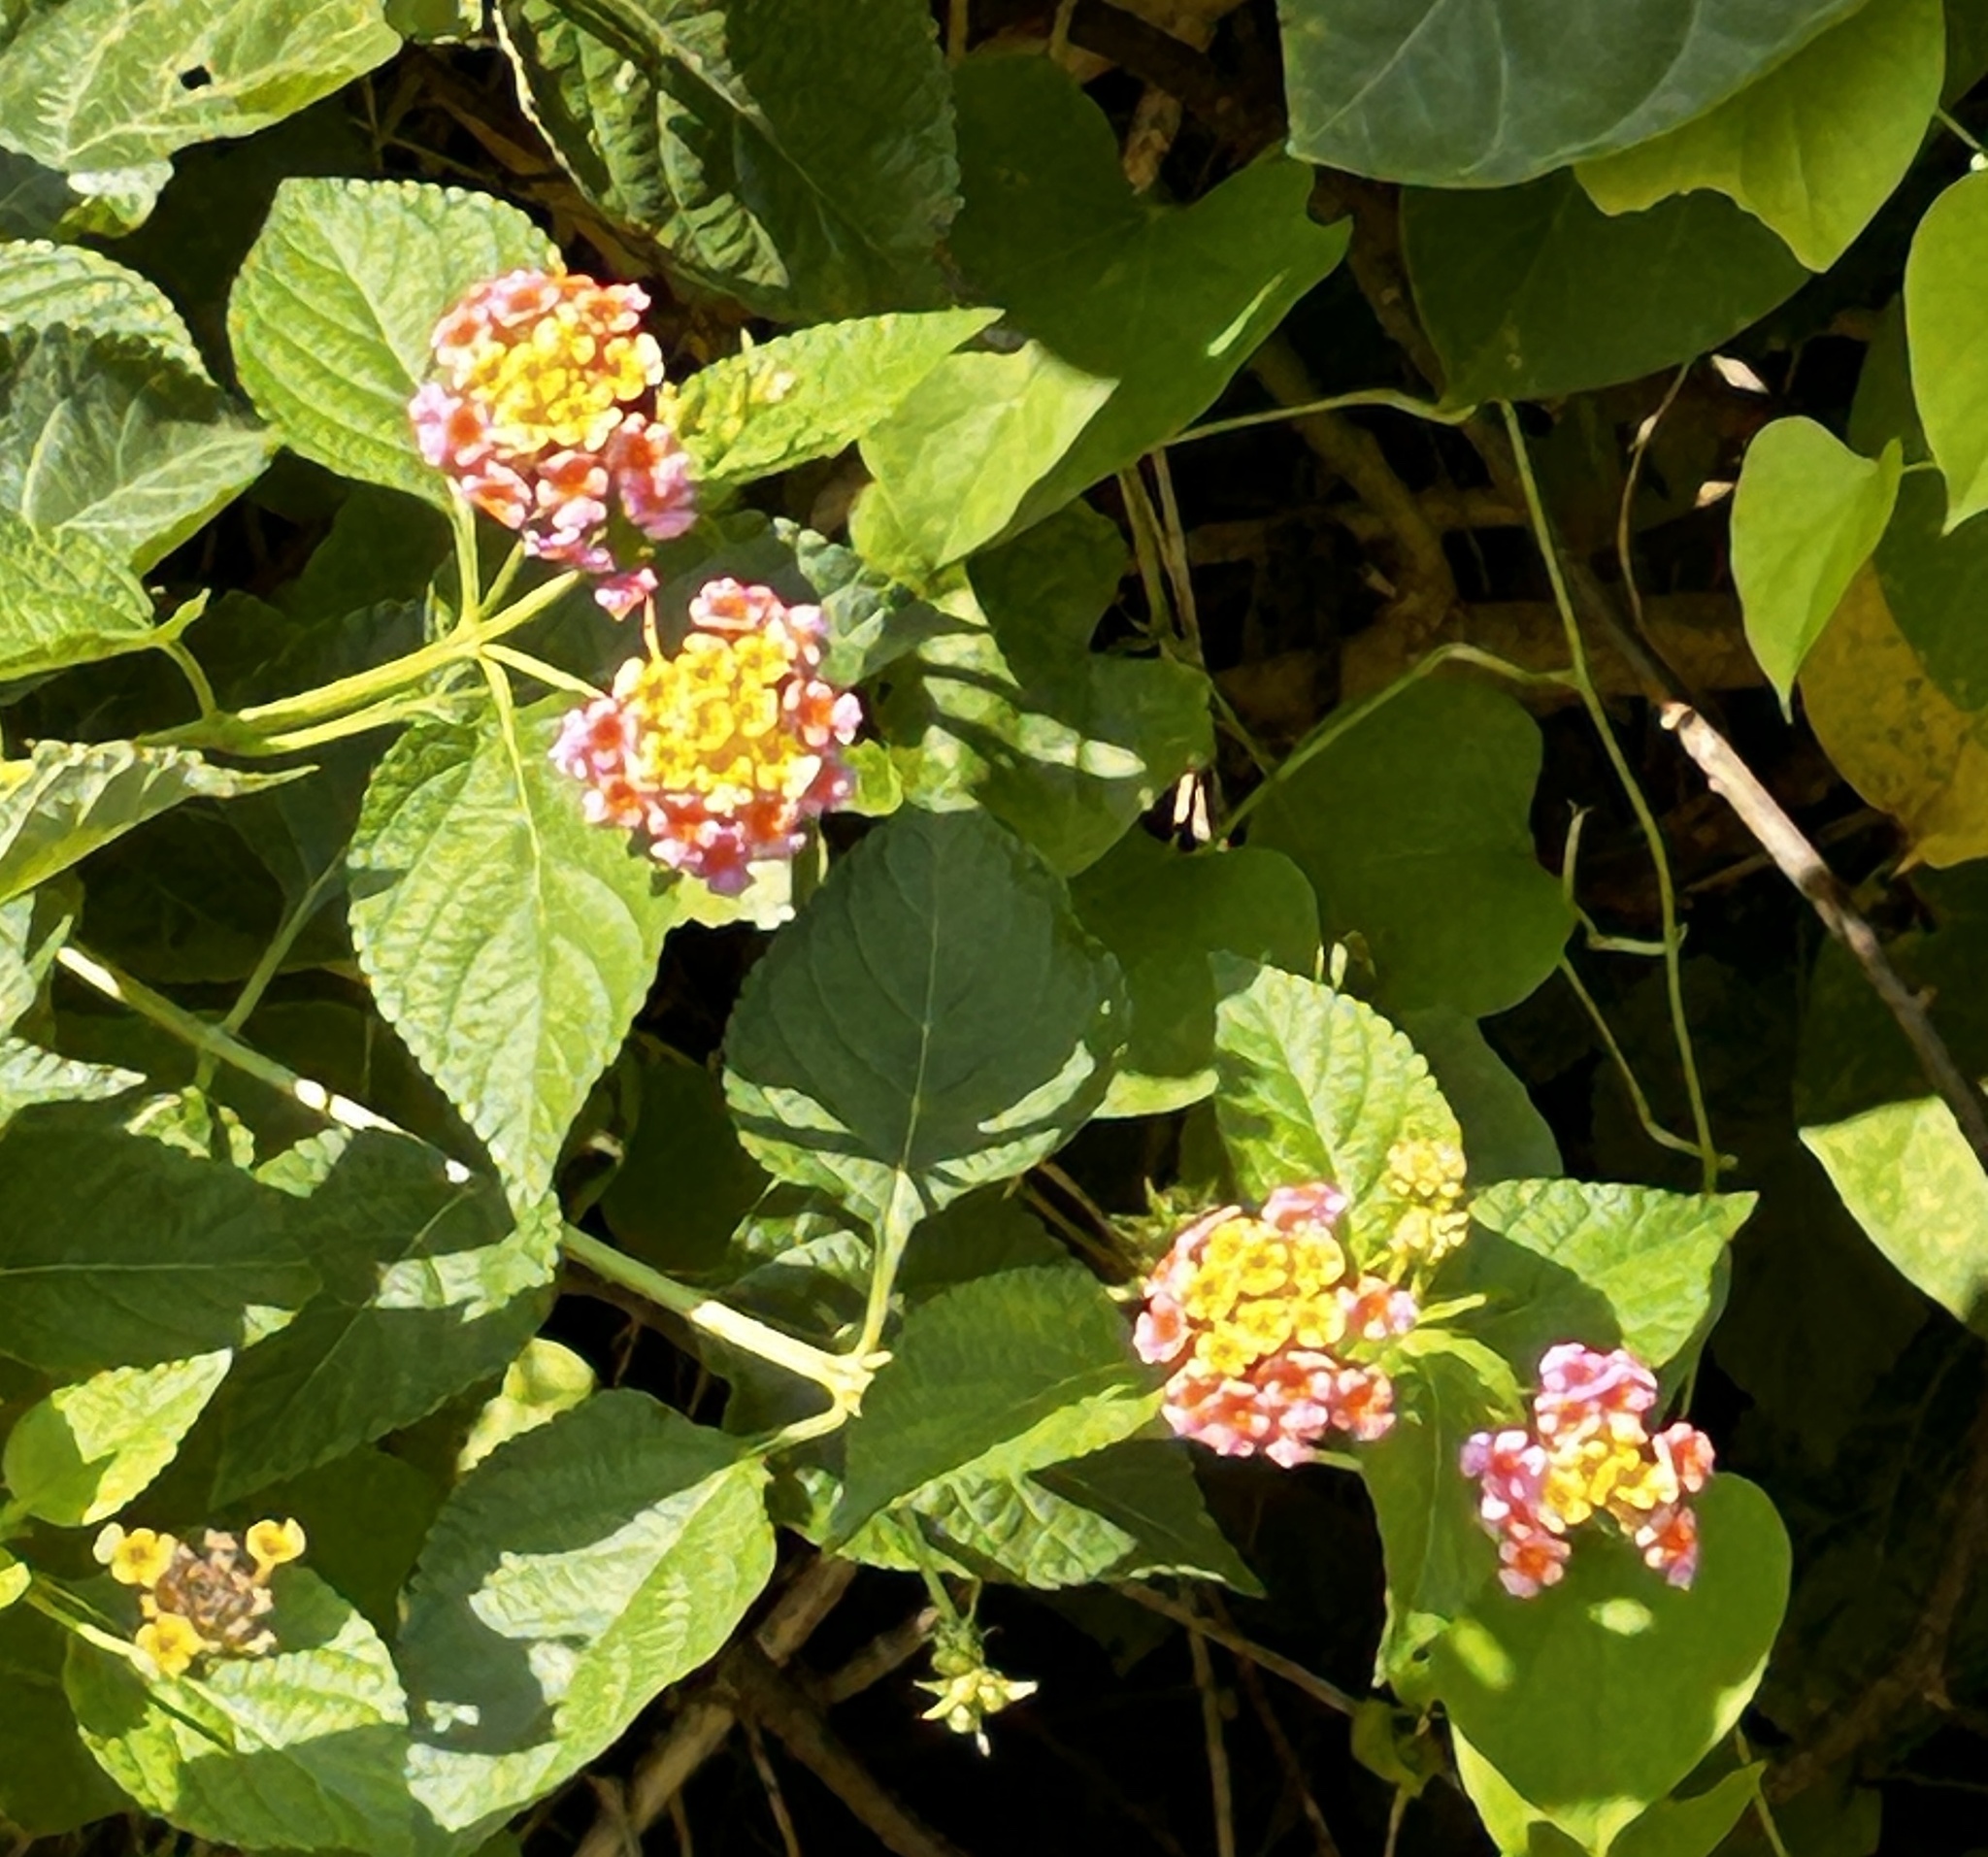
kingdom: Plantae
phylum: Tracheophyta
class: Magnoliopsida
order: Lamiales
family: Verbenaceae
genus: Lantana
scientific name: Lantana camara
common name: Lantana
